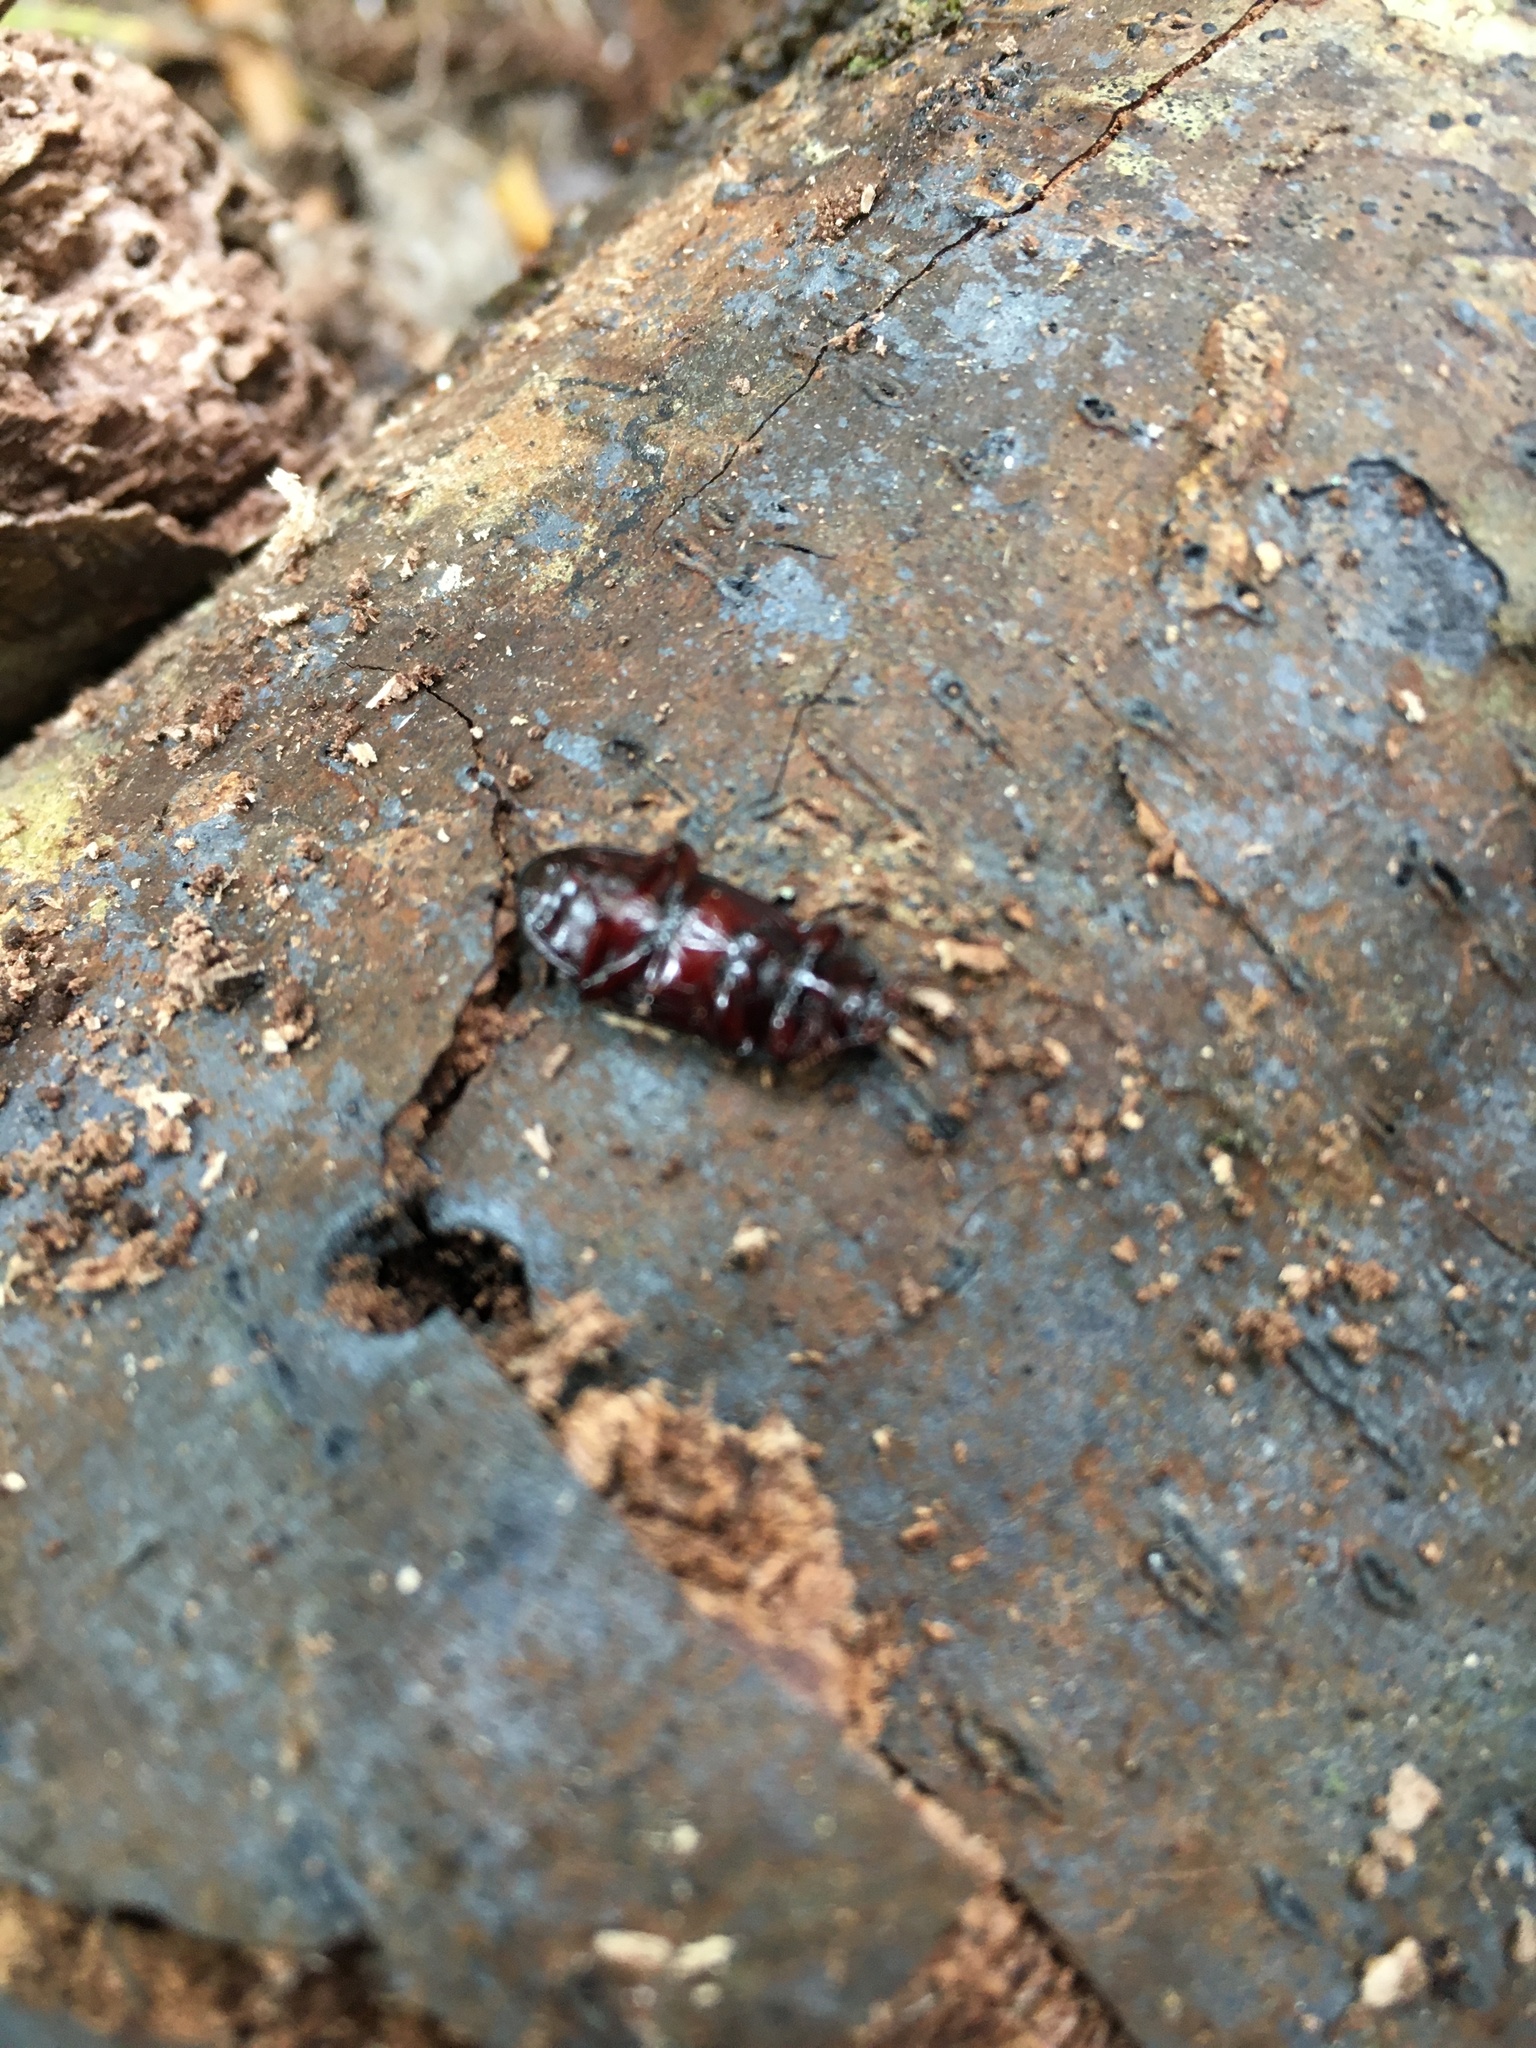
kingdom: Animalia
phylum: Arthropoda
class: Insecta
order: Coleoptera
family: Tenebrionidae
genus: Uloma
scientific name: Uloma tenebrionoides
